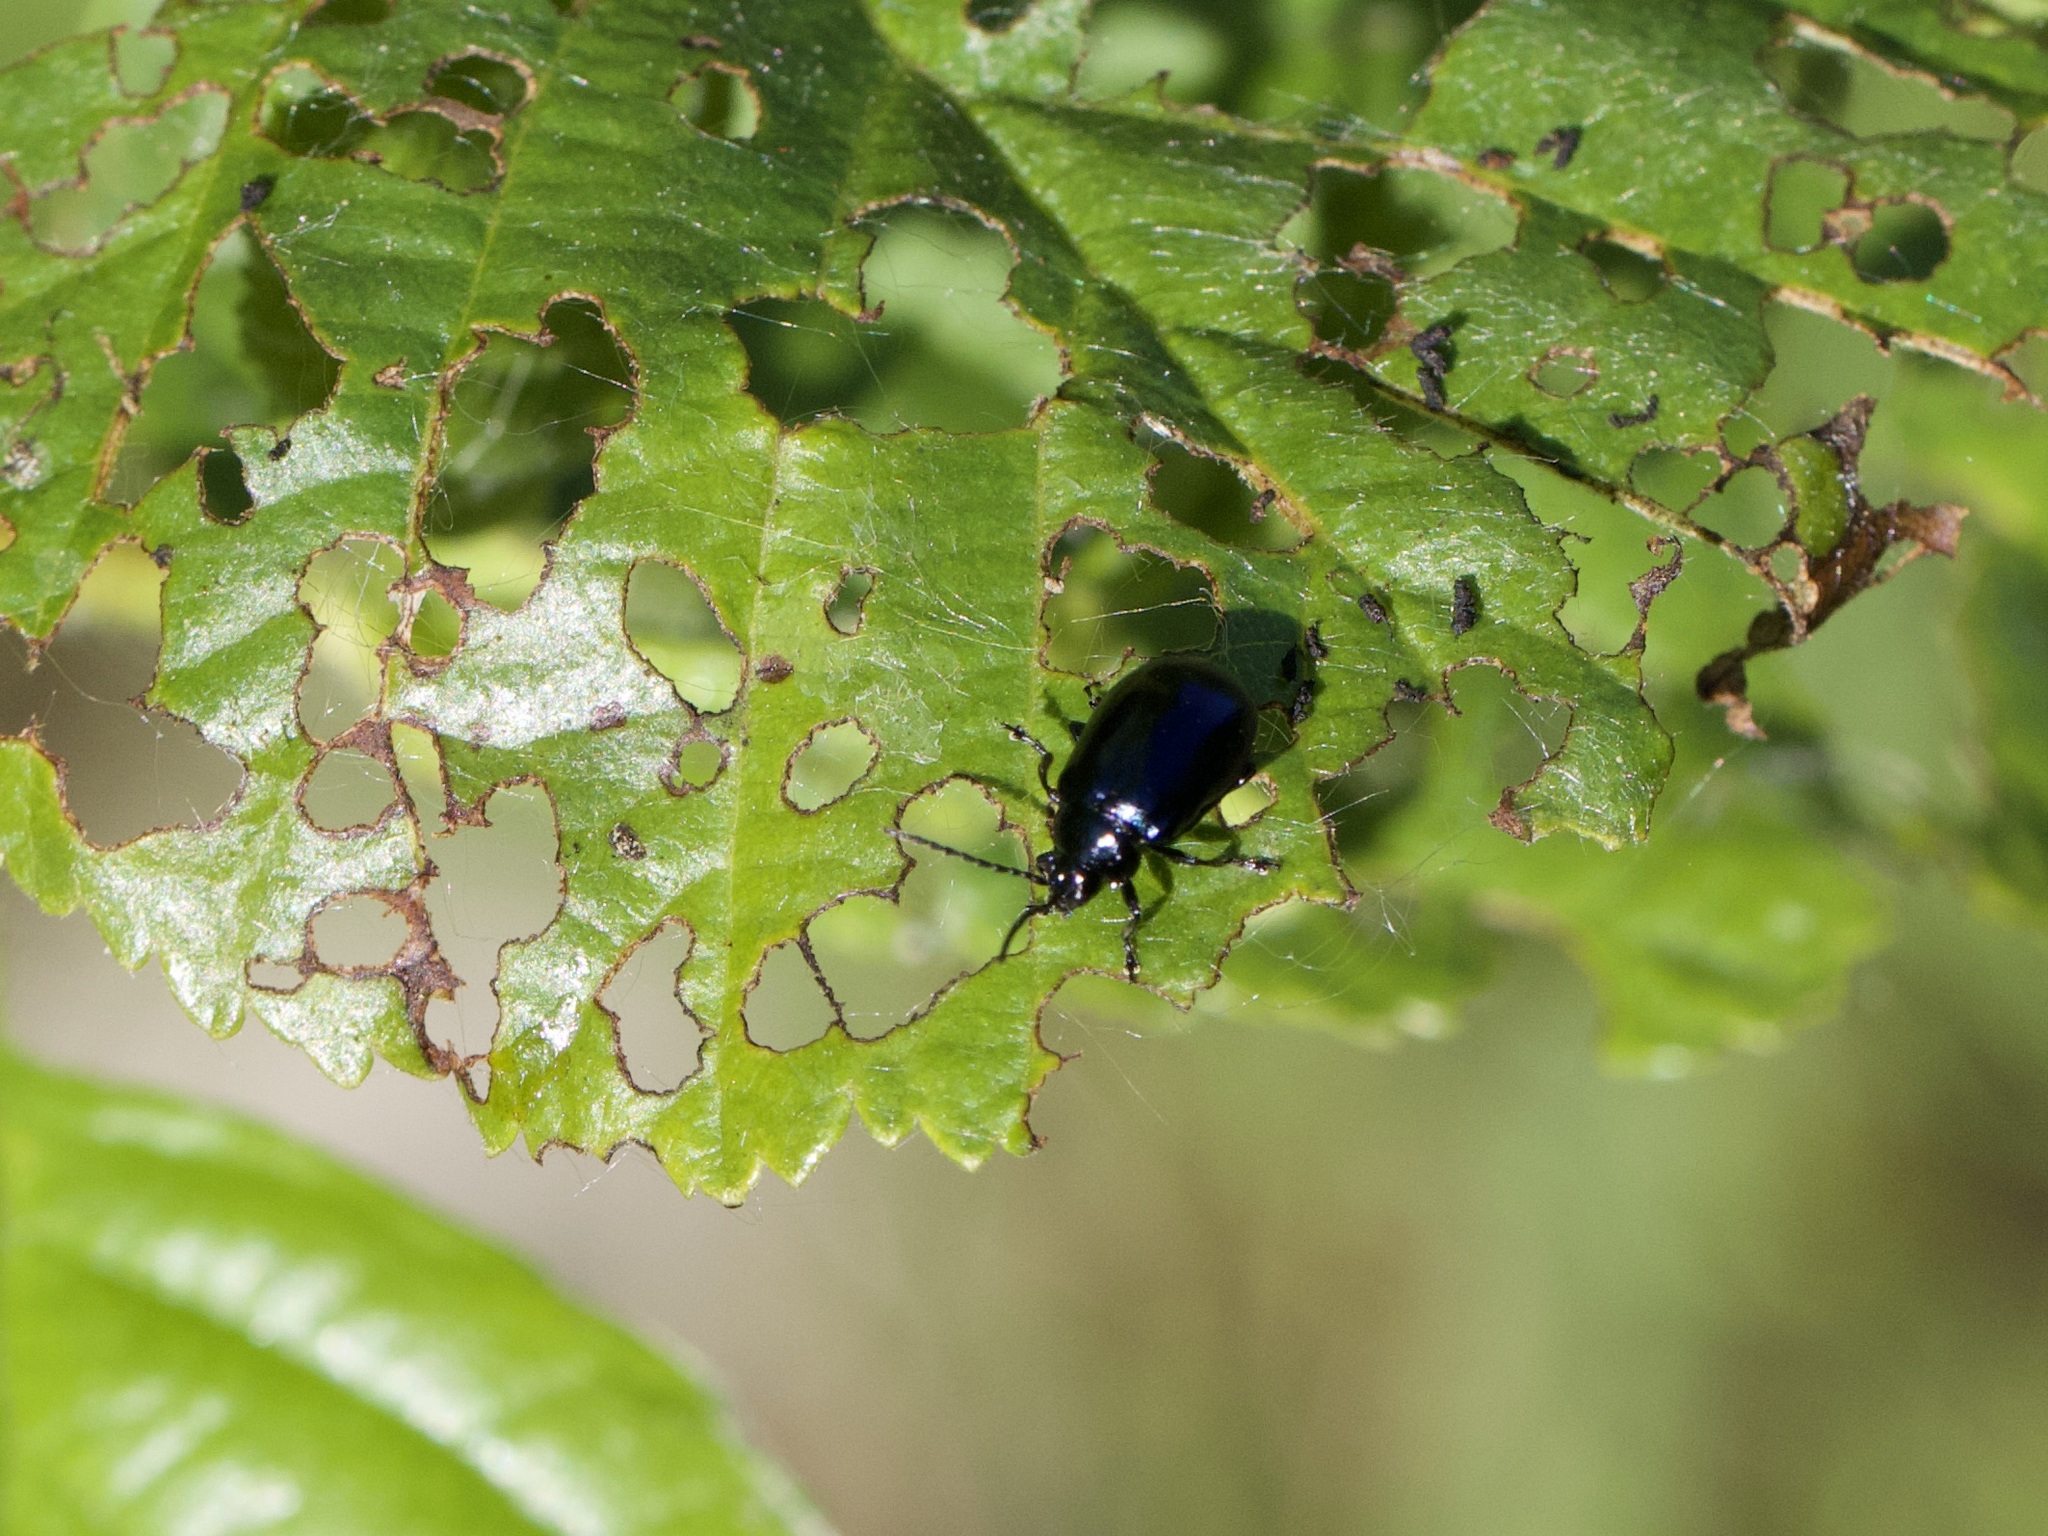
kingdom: Animalia
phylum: Arthropoda
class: Insecta
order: Coleoptera
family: Chrysomelidae
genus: Agelastica
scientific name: Agelastica alni
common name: Alder leaf beetle
